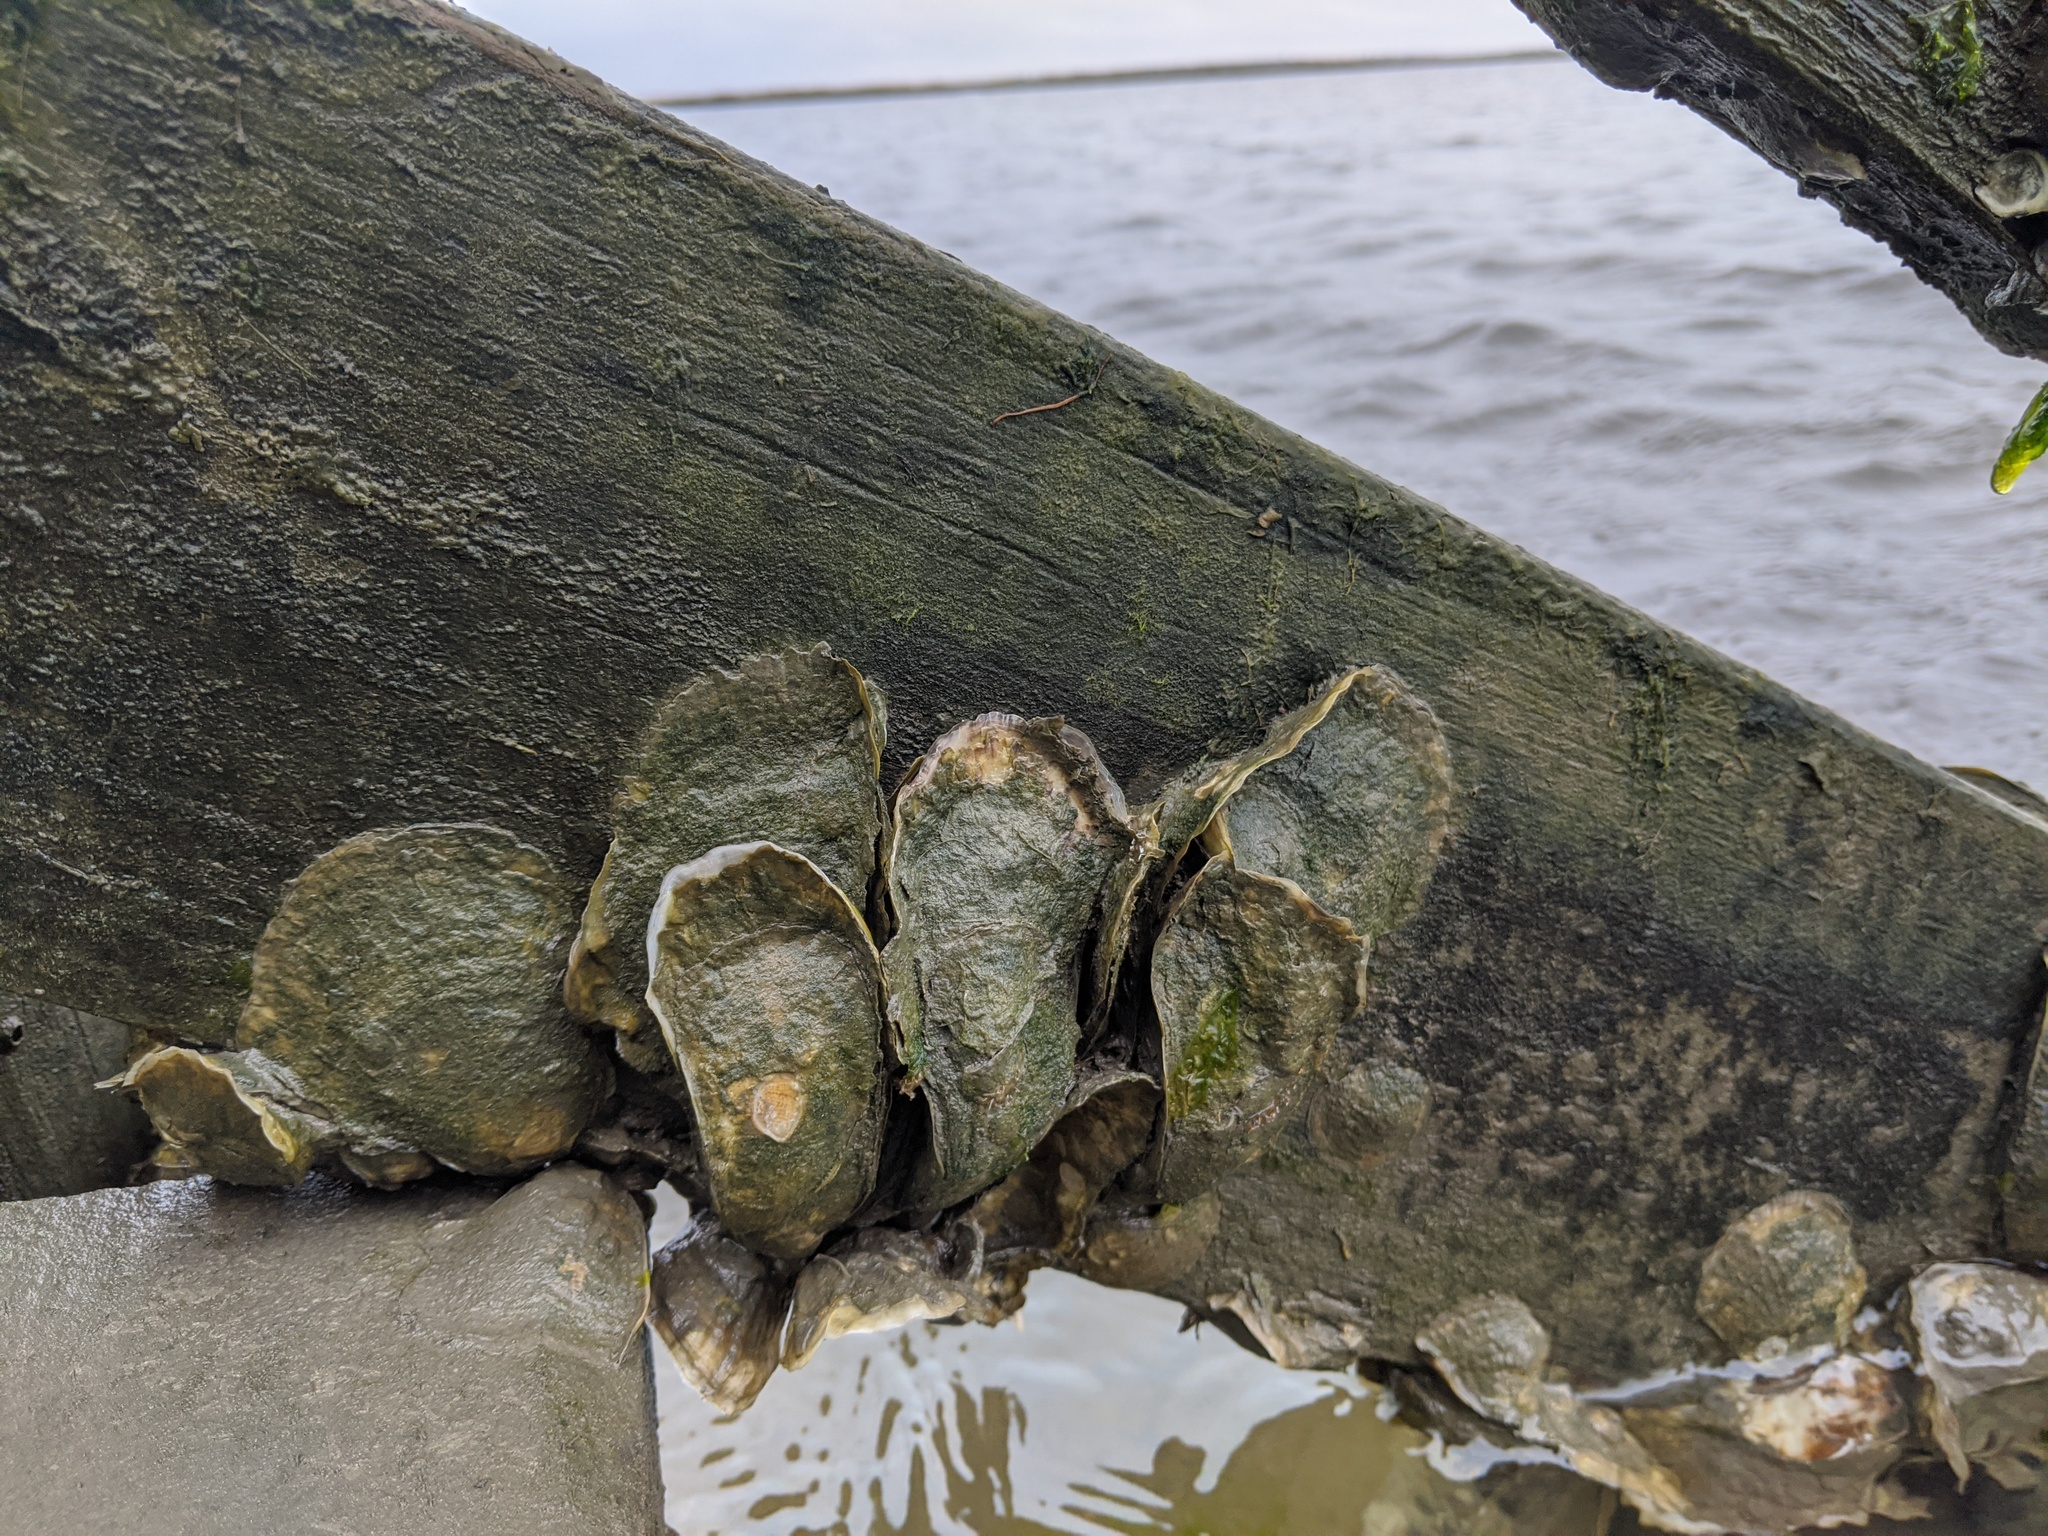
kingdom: Animalia
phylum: Mollusca
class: Bivalvia
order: Ostreida
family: Ostreidae
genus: Crassostrea
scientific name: Crassostrea virginica
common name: American oyster
